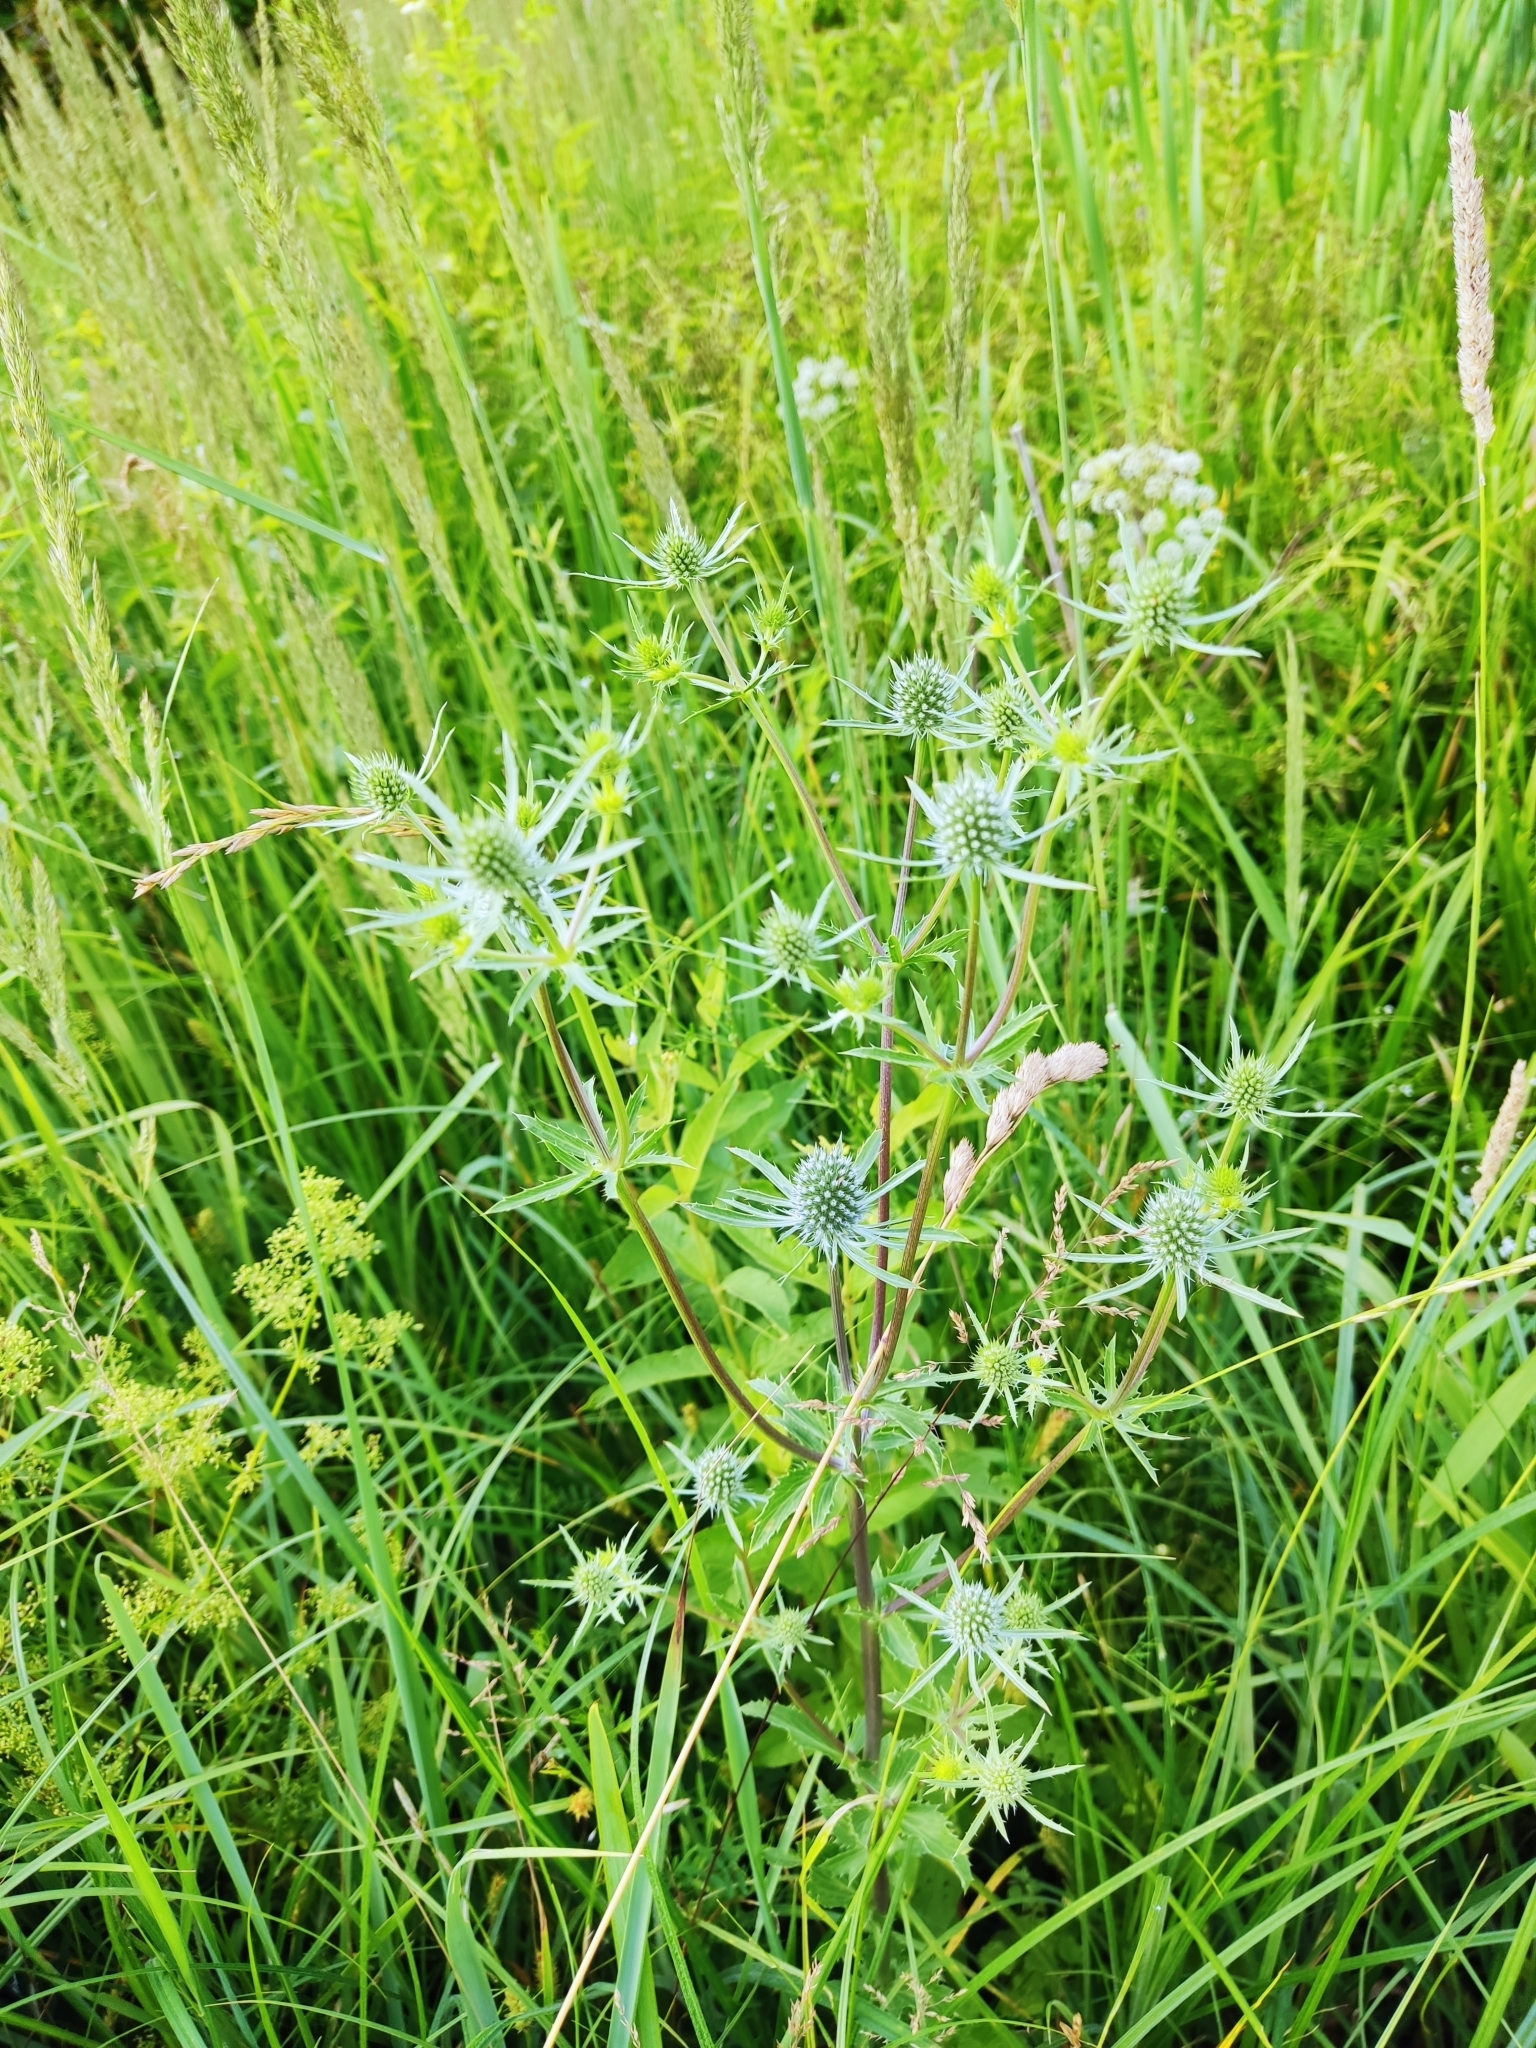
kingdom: Plantae
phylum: Tracheophyta
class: Magnoliopsida
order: Apiales
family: Apiaceae
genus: Eryngium
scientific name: Eryngium planum
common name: Blue eryngo
